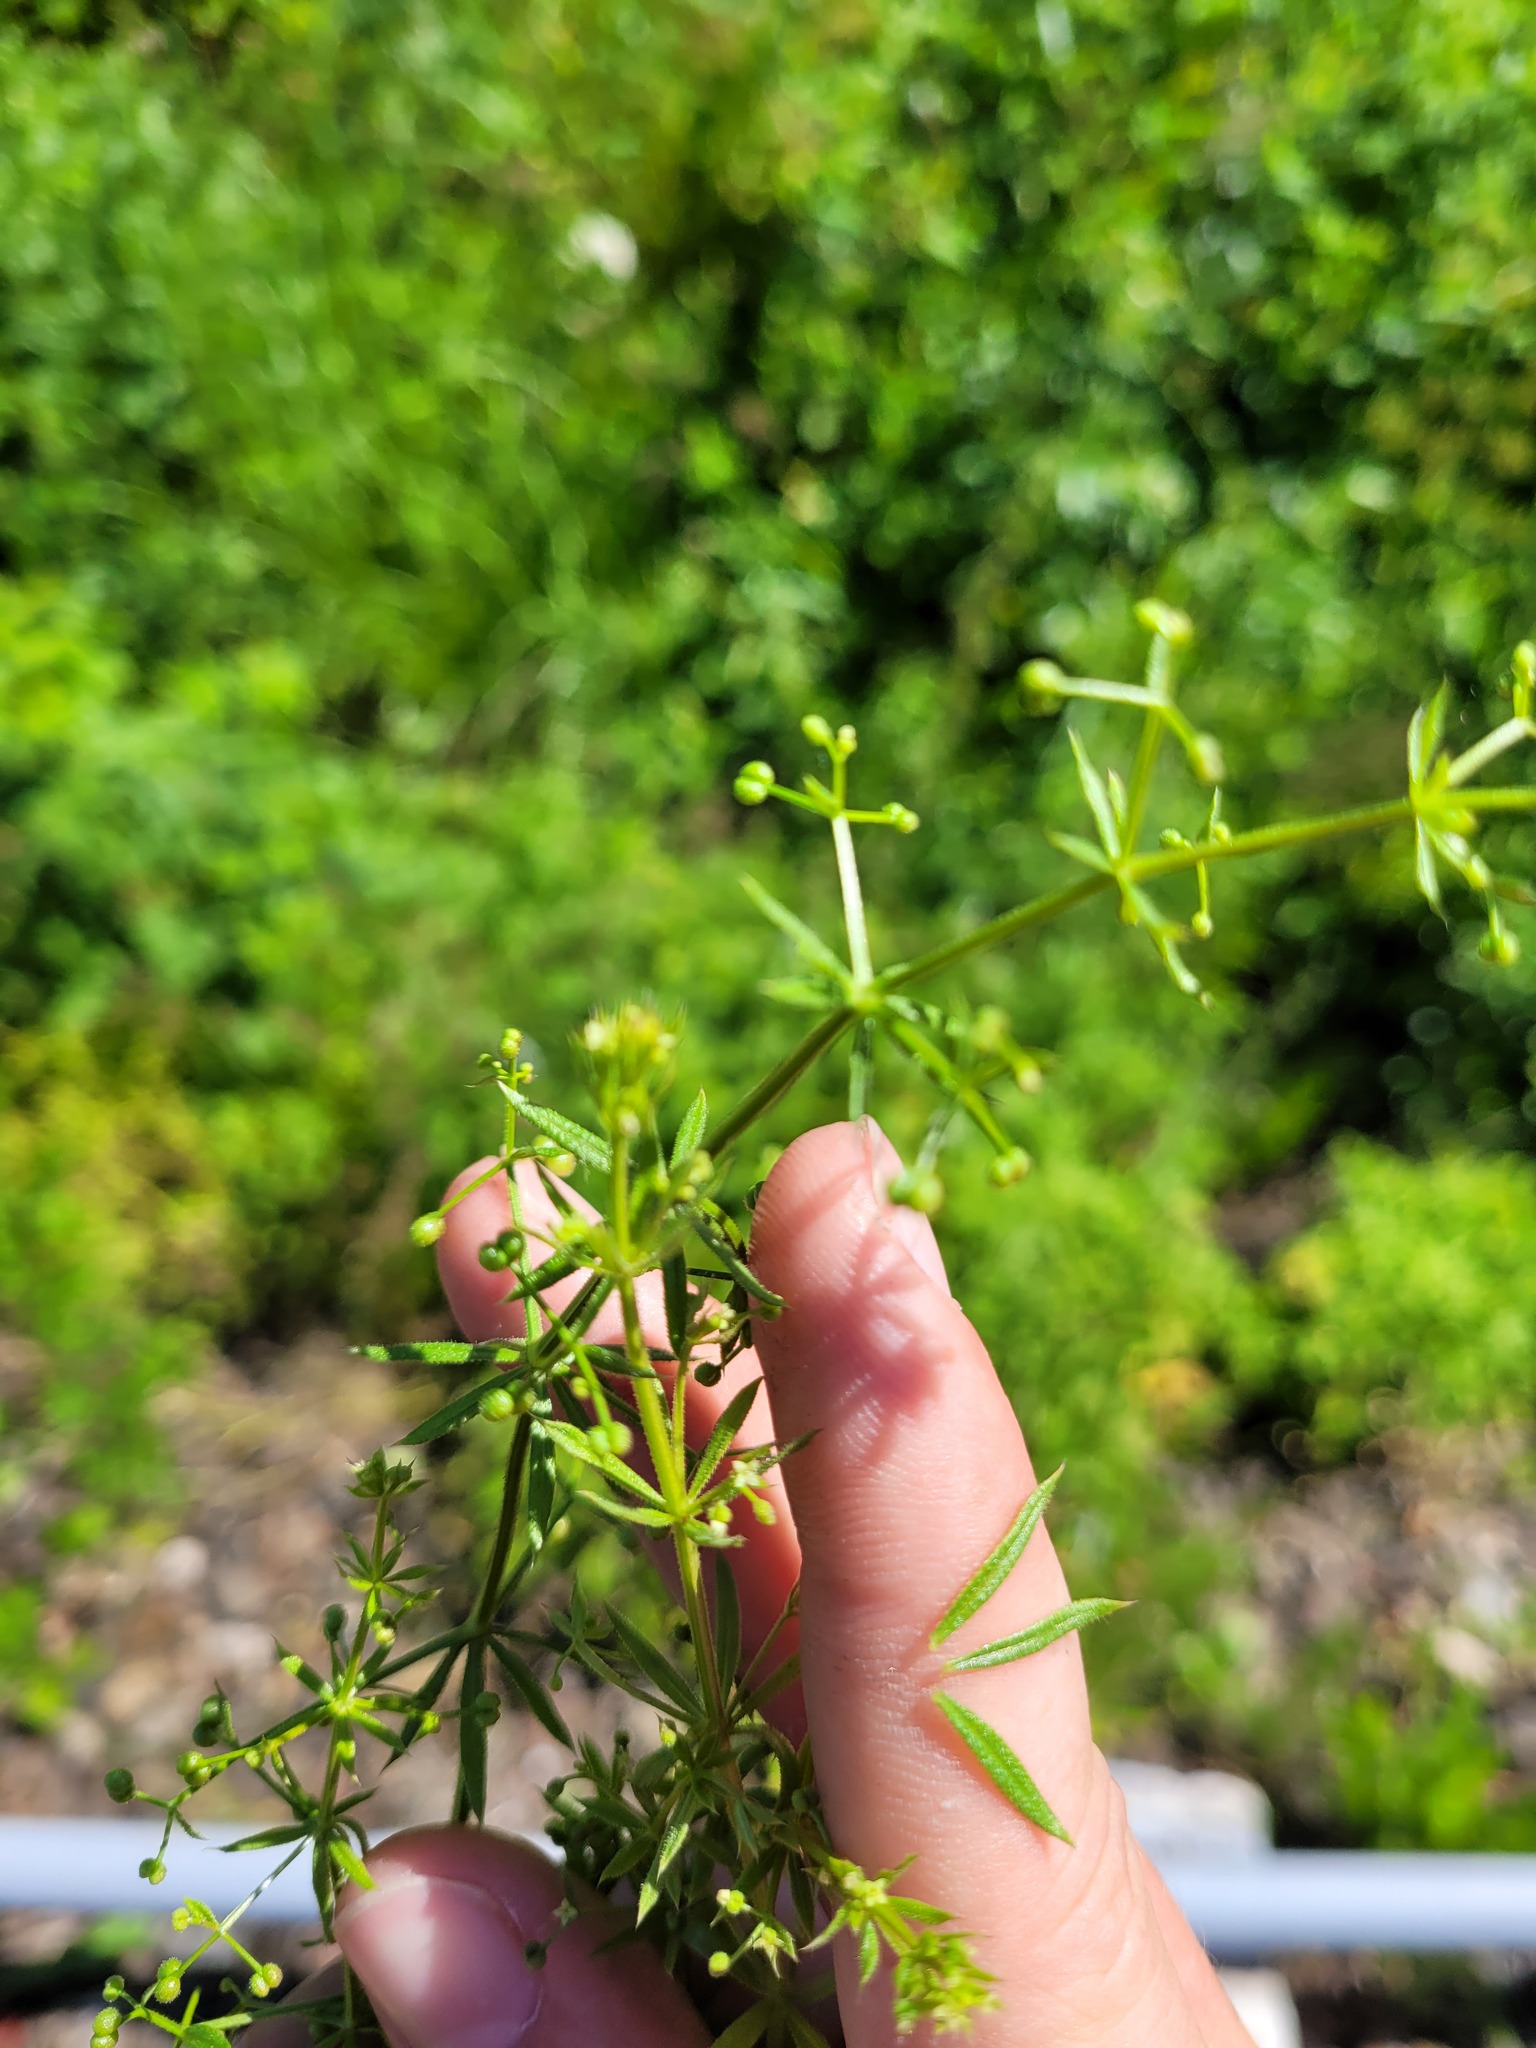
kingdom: Plantae
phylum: Tracheophyta
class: Magnoliopsida
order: Gentianales
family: Rubiaceae
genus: Galium
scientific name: Galium
